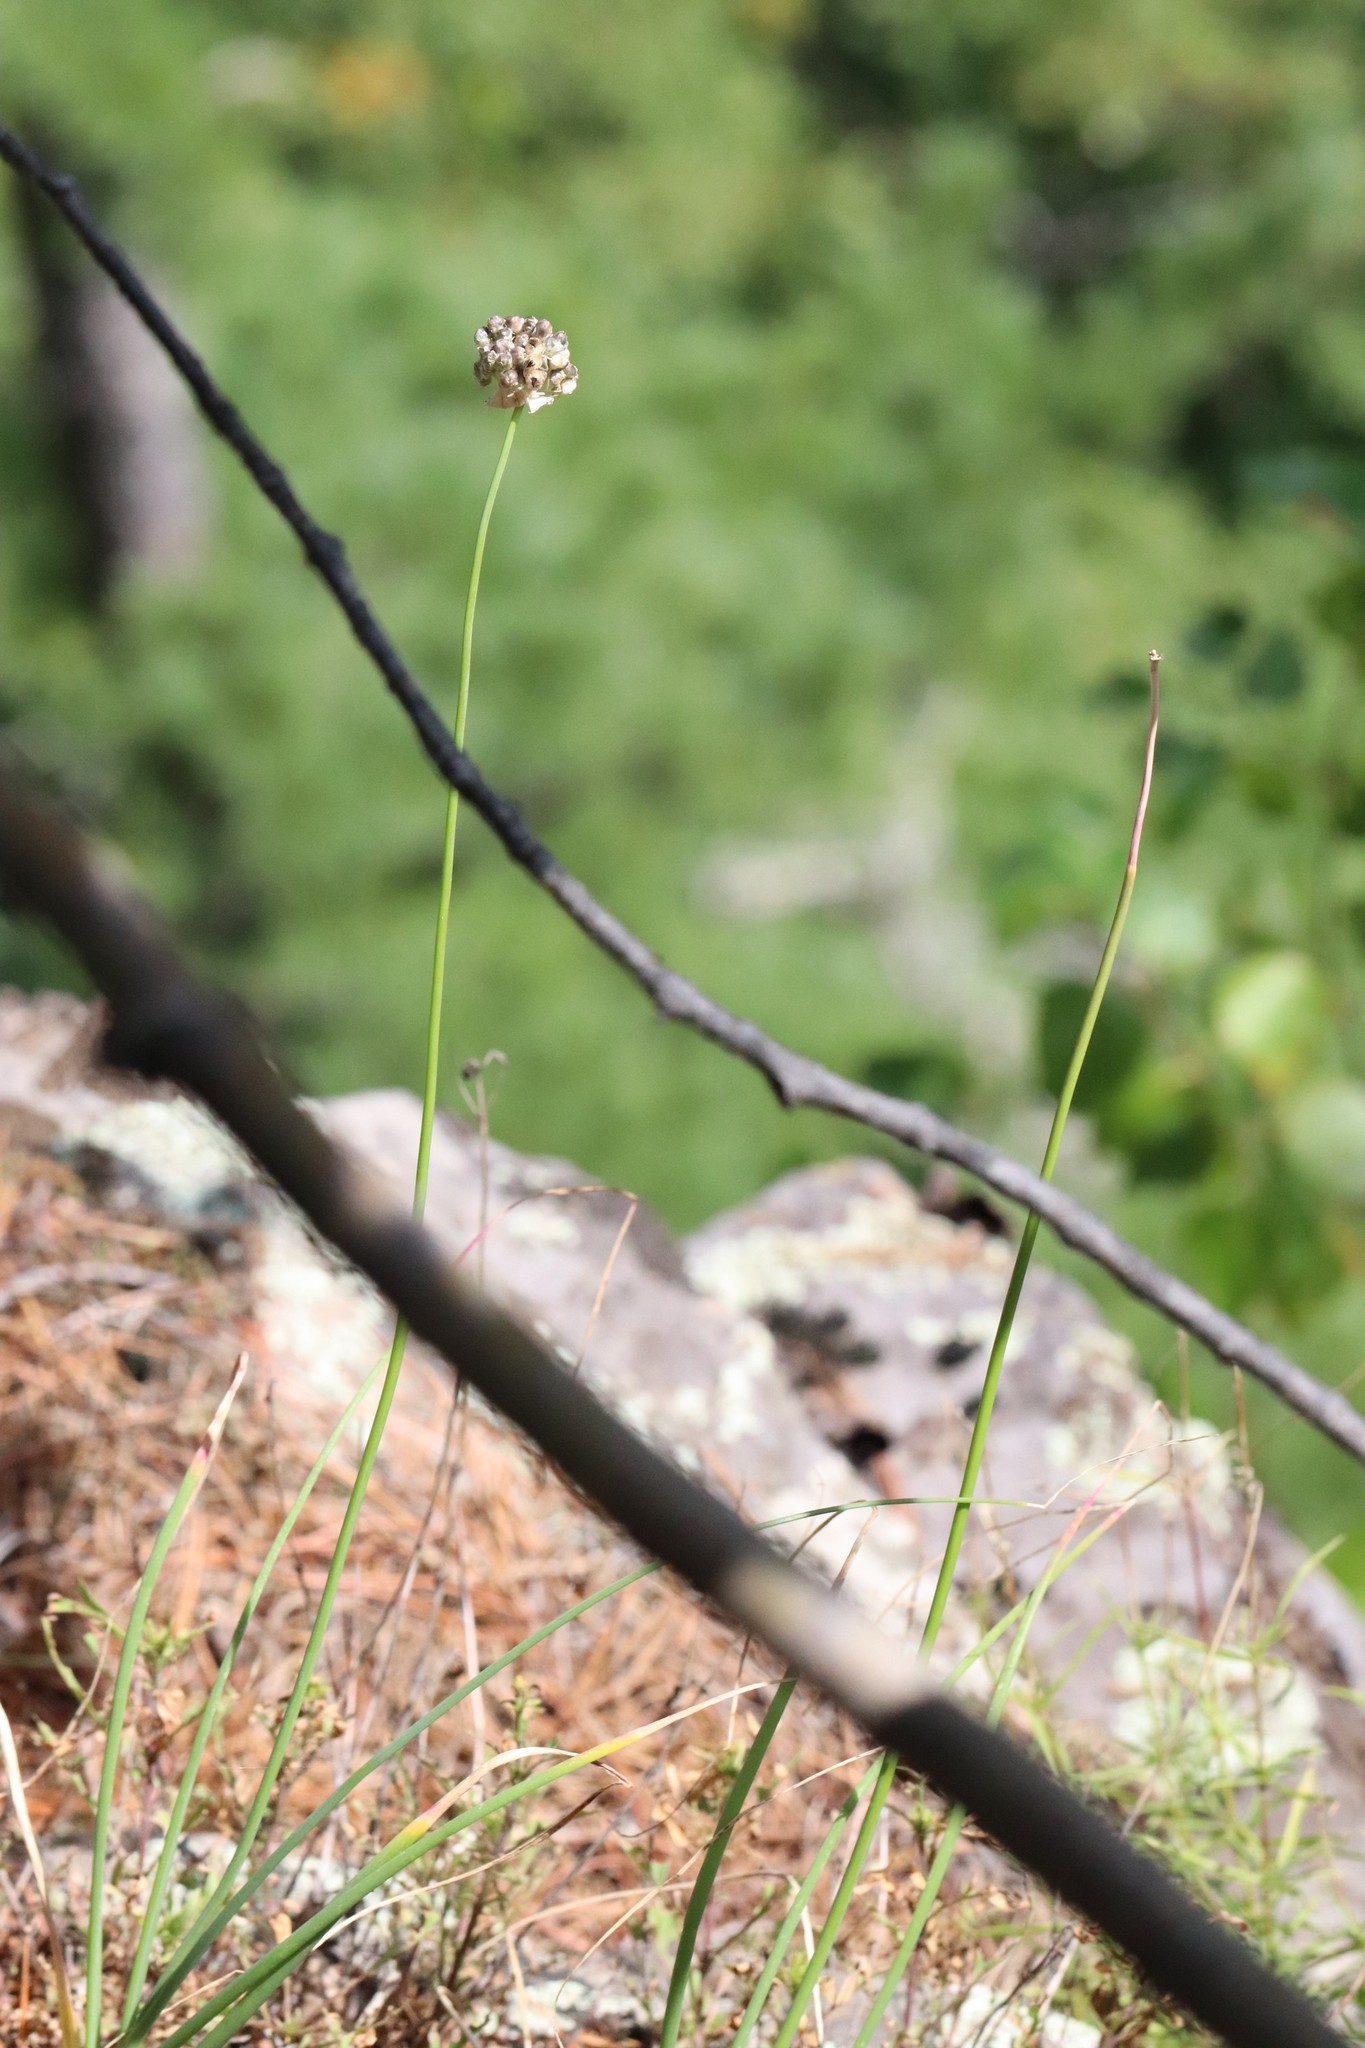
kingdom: Plantae
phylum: Tracheophyta
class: Liliopsida
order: Asparagales
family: Amaryllidaceae
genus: Allium
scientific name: Allium condensatum
